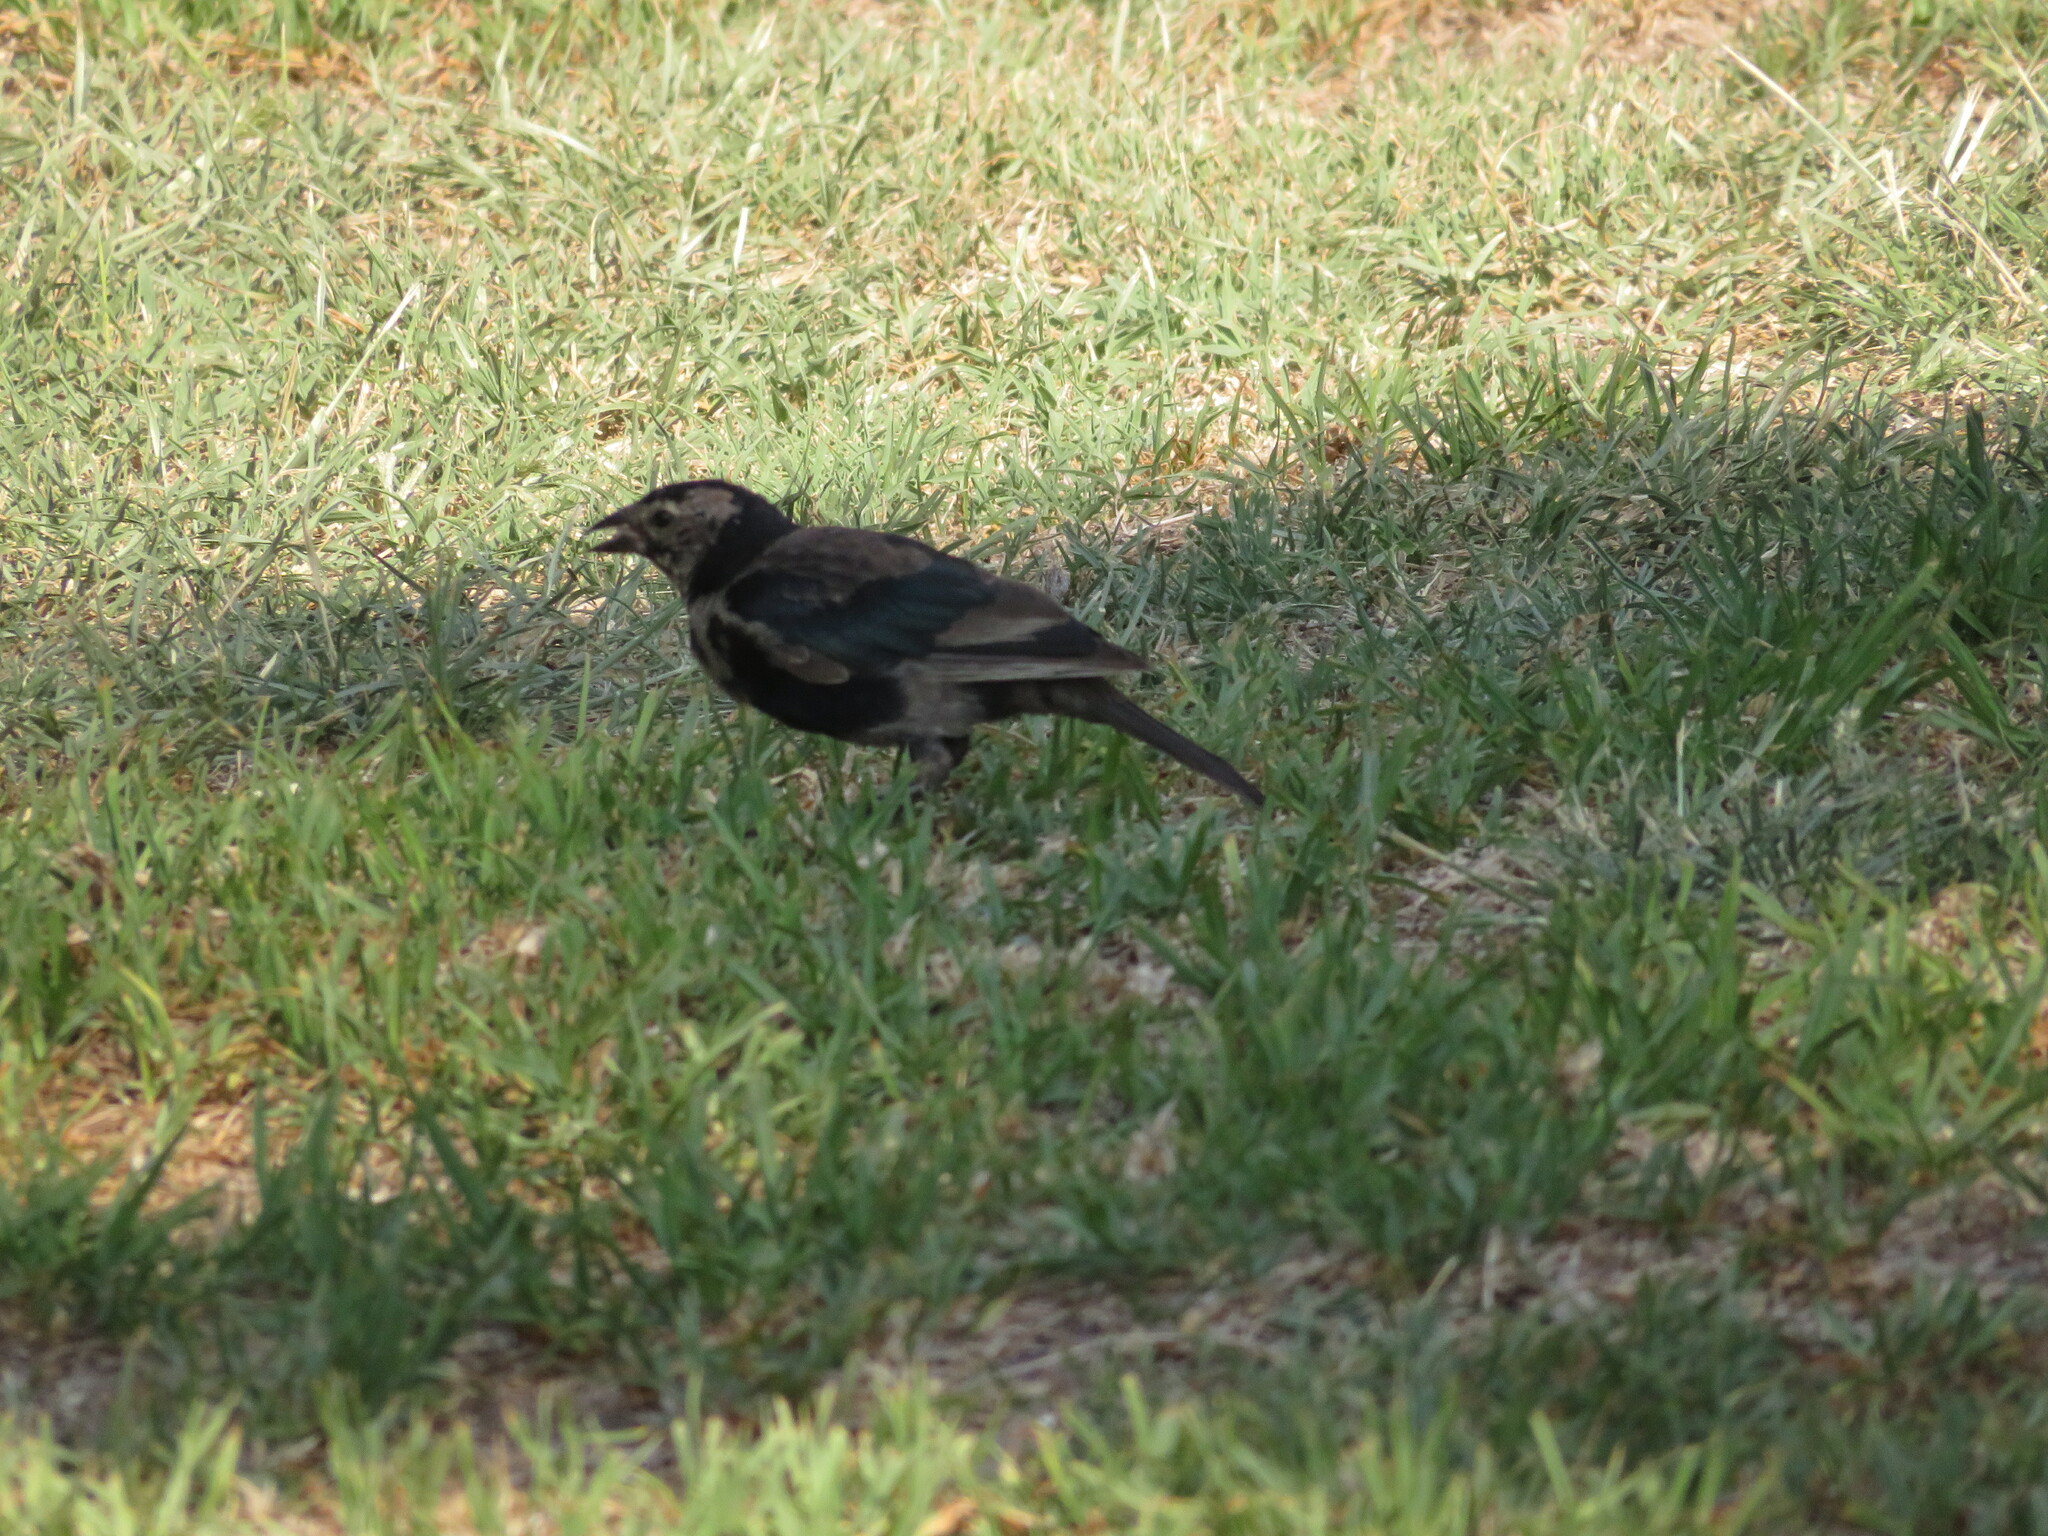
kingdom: Animalia
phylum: Chordata
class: Aves
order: Passeriformes
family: Icteridae
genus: Molothrus
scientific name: Molothrus bonariensis
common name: Shiny cowbird
